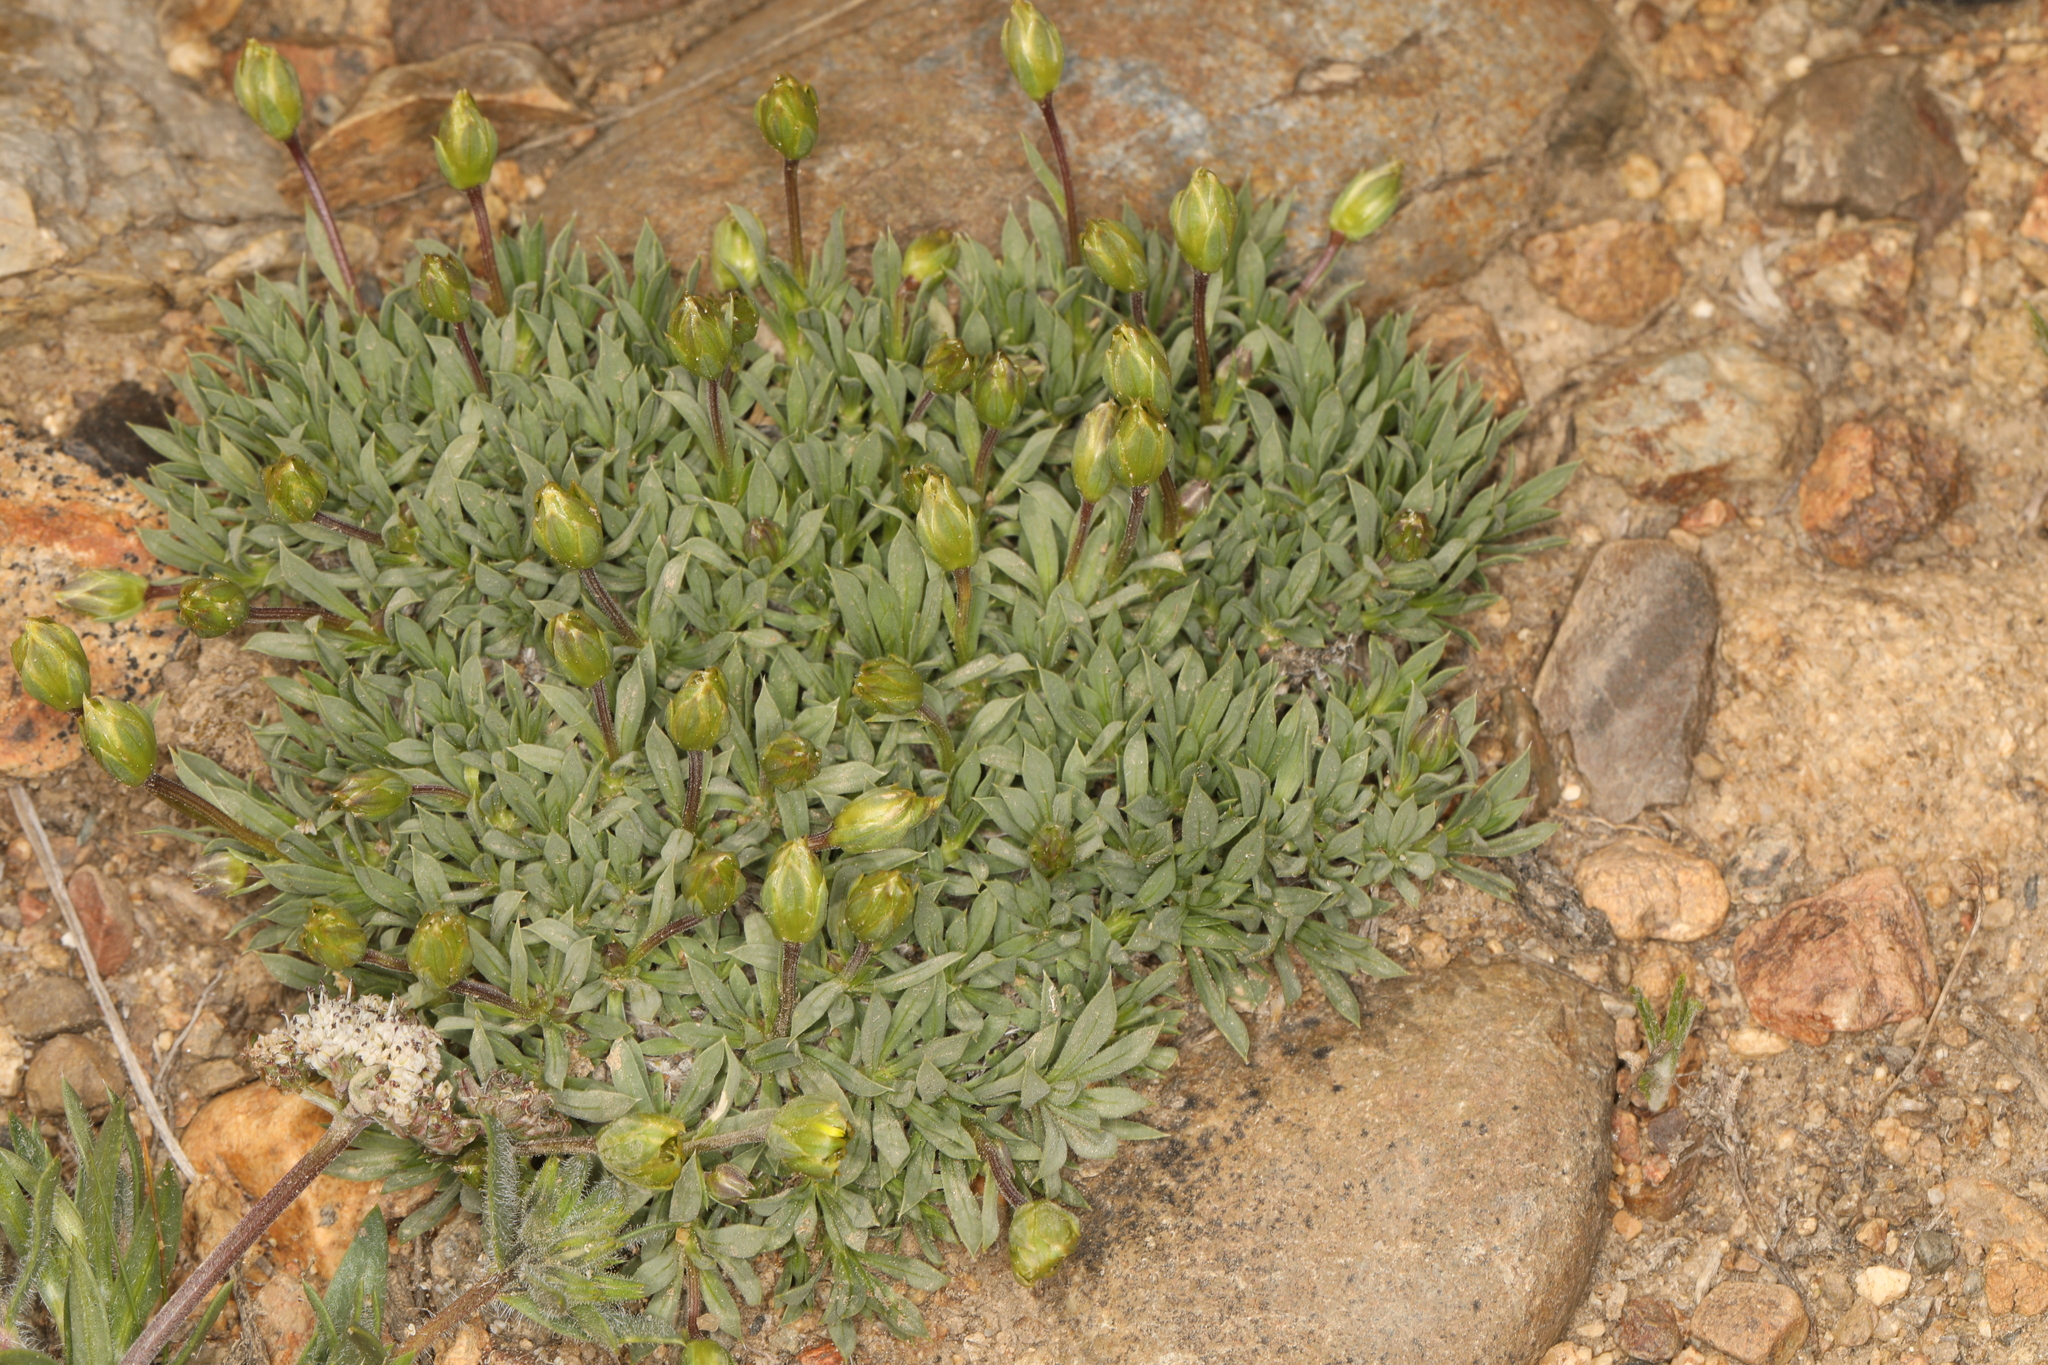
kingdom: Plantae
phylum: Tracheophyta
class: Magnoliopsida
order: Asterales
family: Asteraceae
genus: Stenotus
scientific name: Stenotus acaulis
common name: Stemless goldenweed
